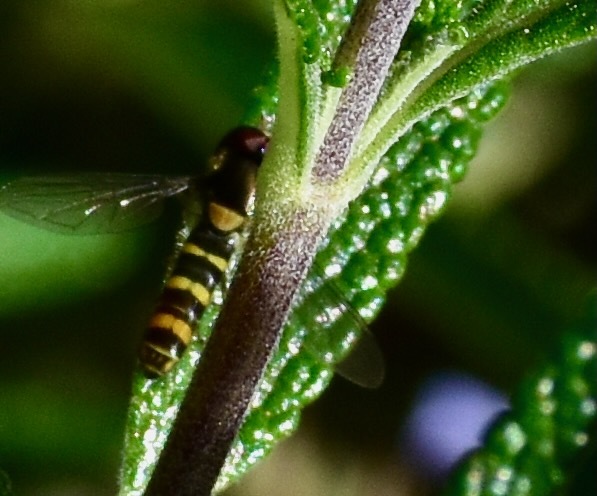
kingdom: Animalia
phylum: Arthropoda
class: Insecta
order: Diptera
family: Syrphidae
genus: Fazia
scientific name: Fazia micrura
